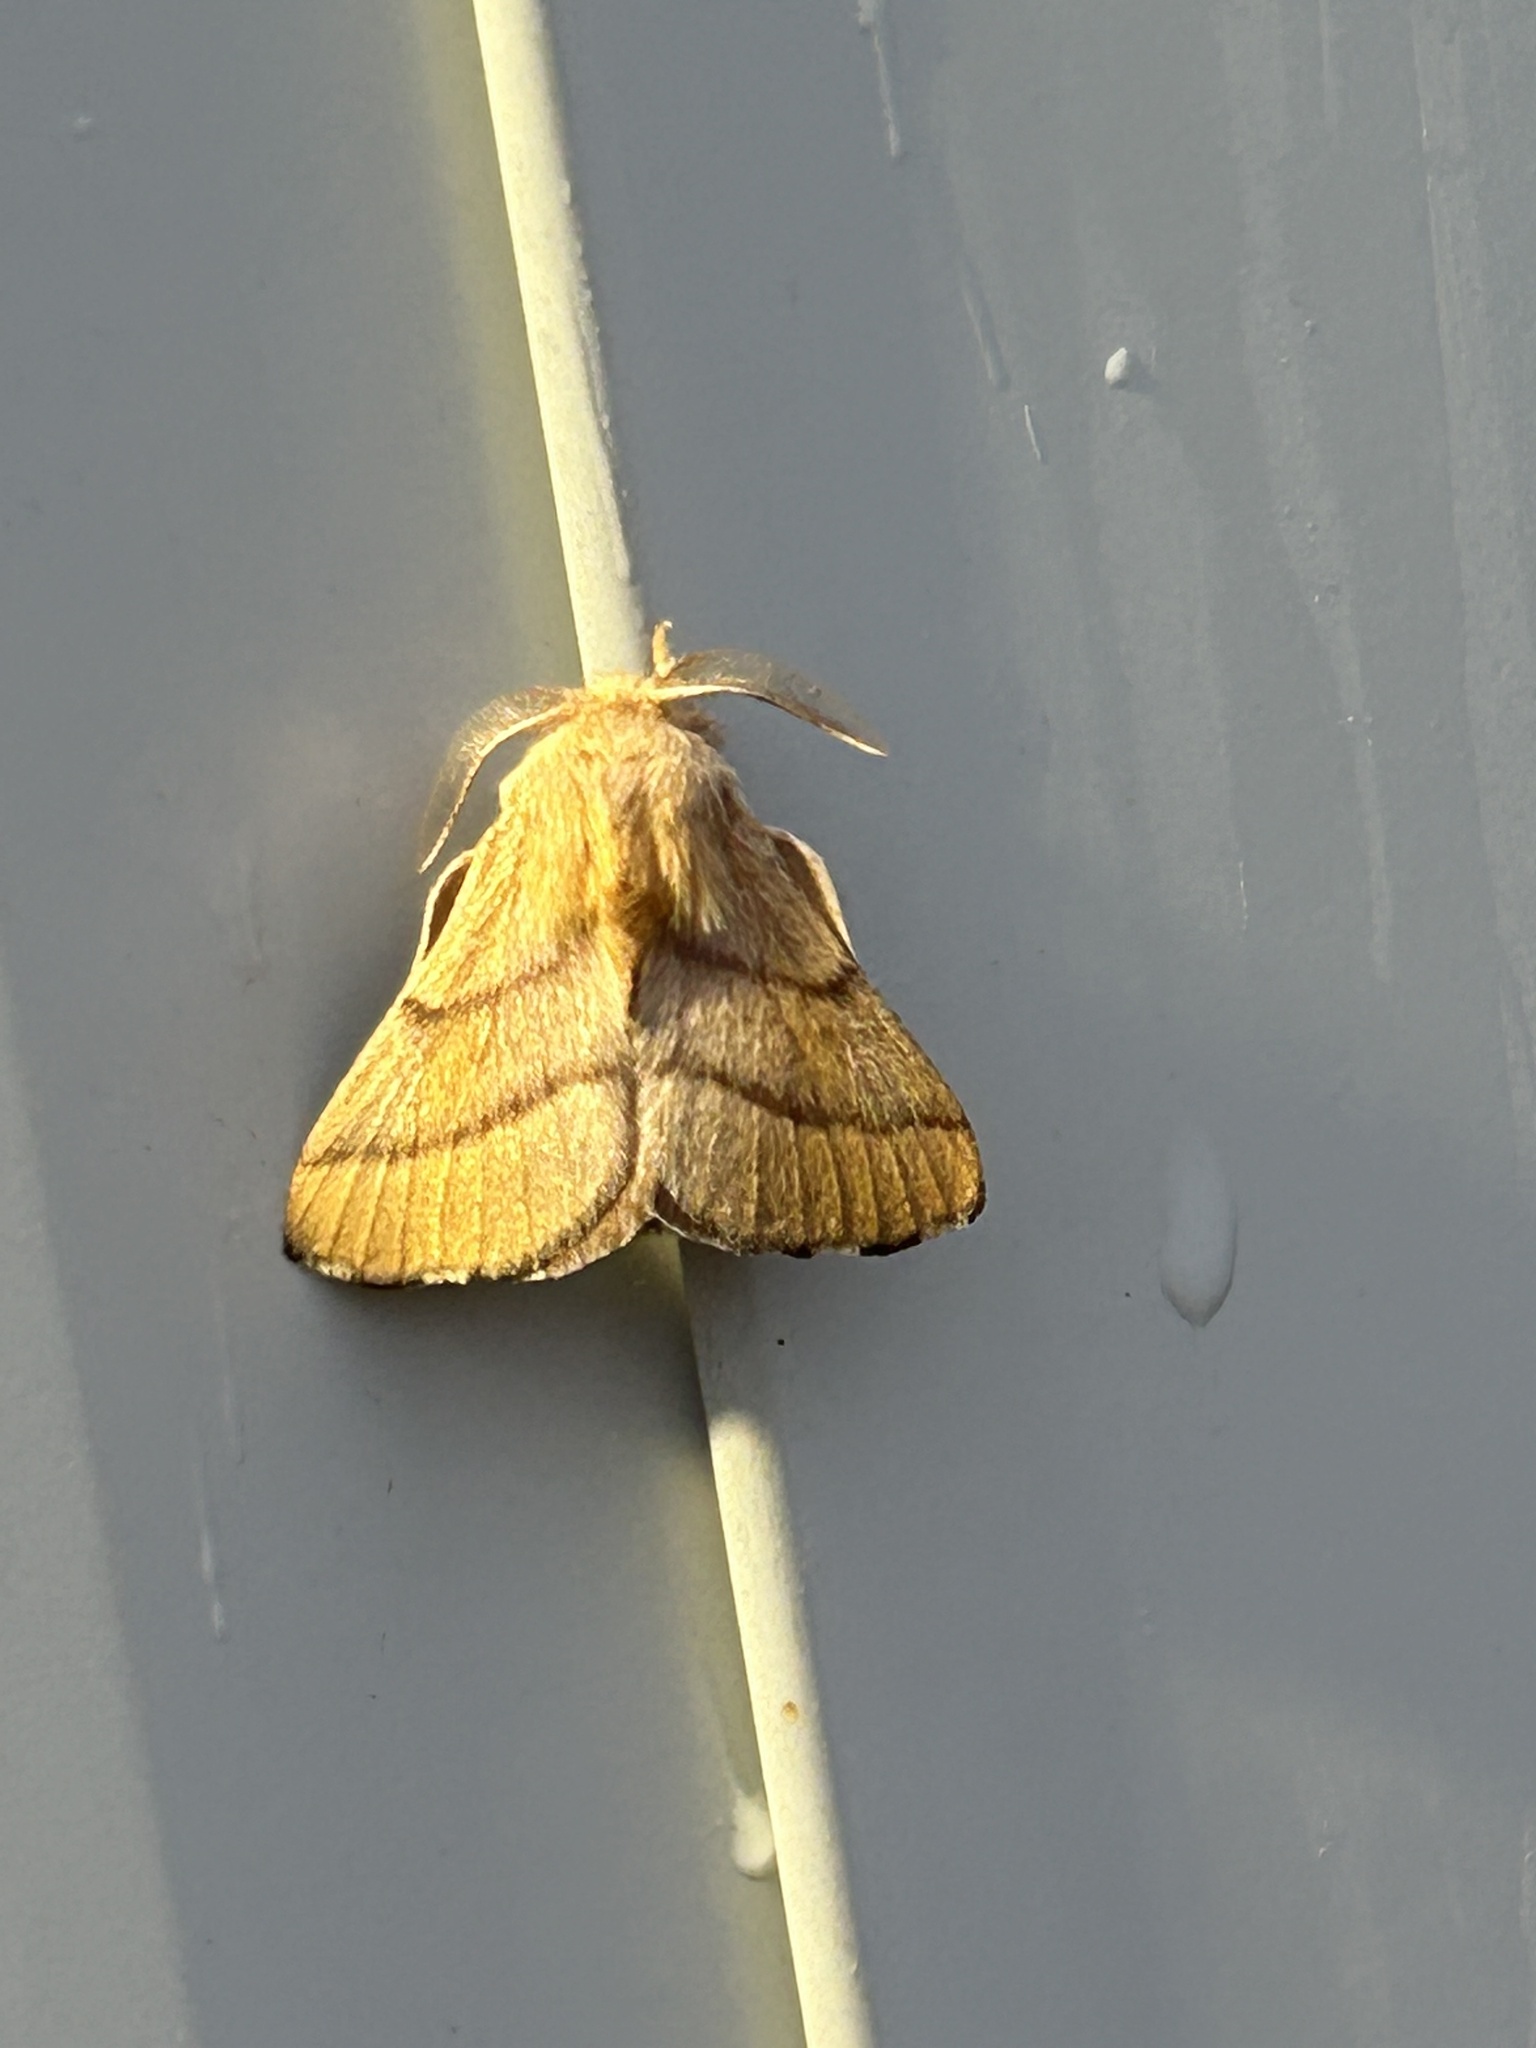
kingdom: Animalia
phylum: Arthropoda
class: Insecta
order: Lepidoptera
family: Lasiocampidae
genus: Malacosoma
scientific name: Malacosoma disstria
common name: Forest tent caterpillar
